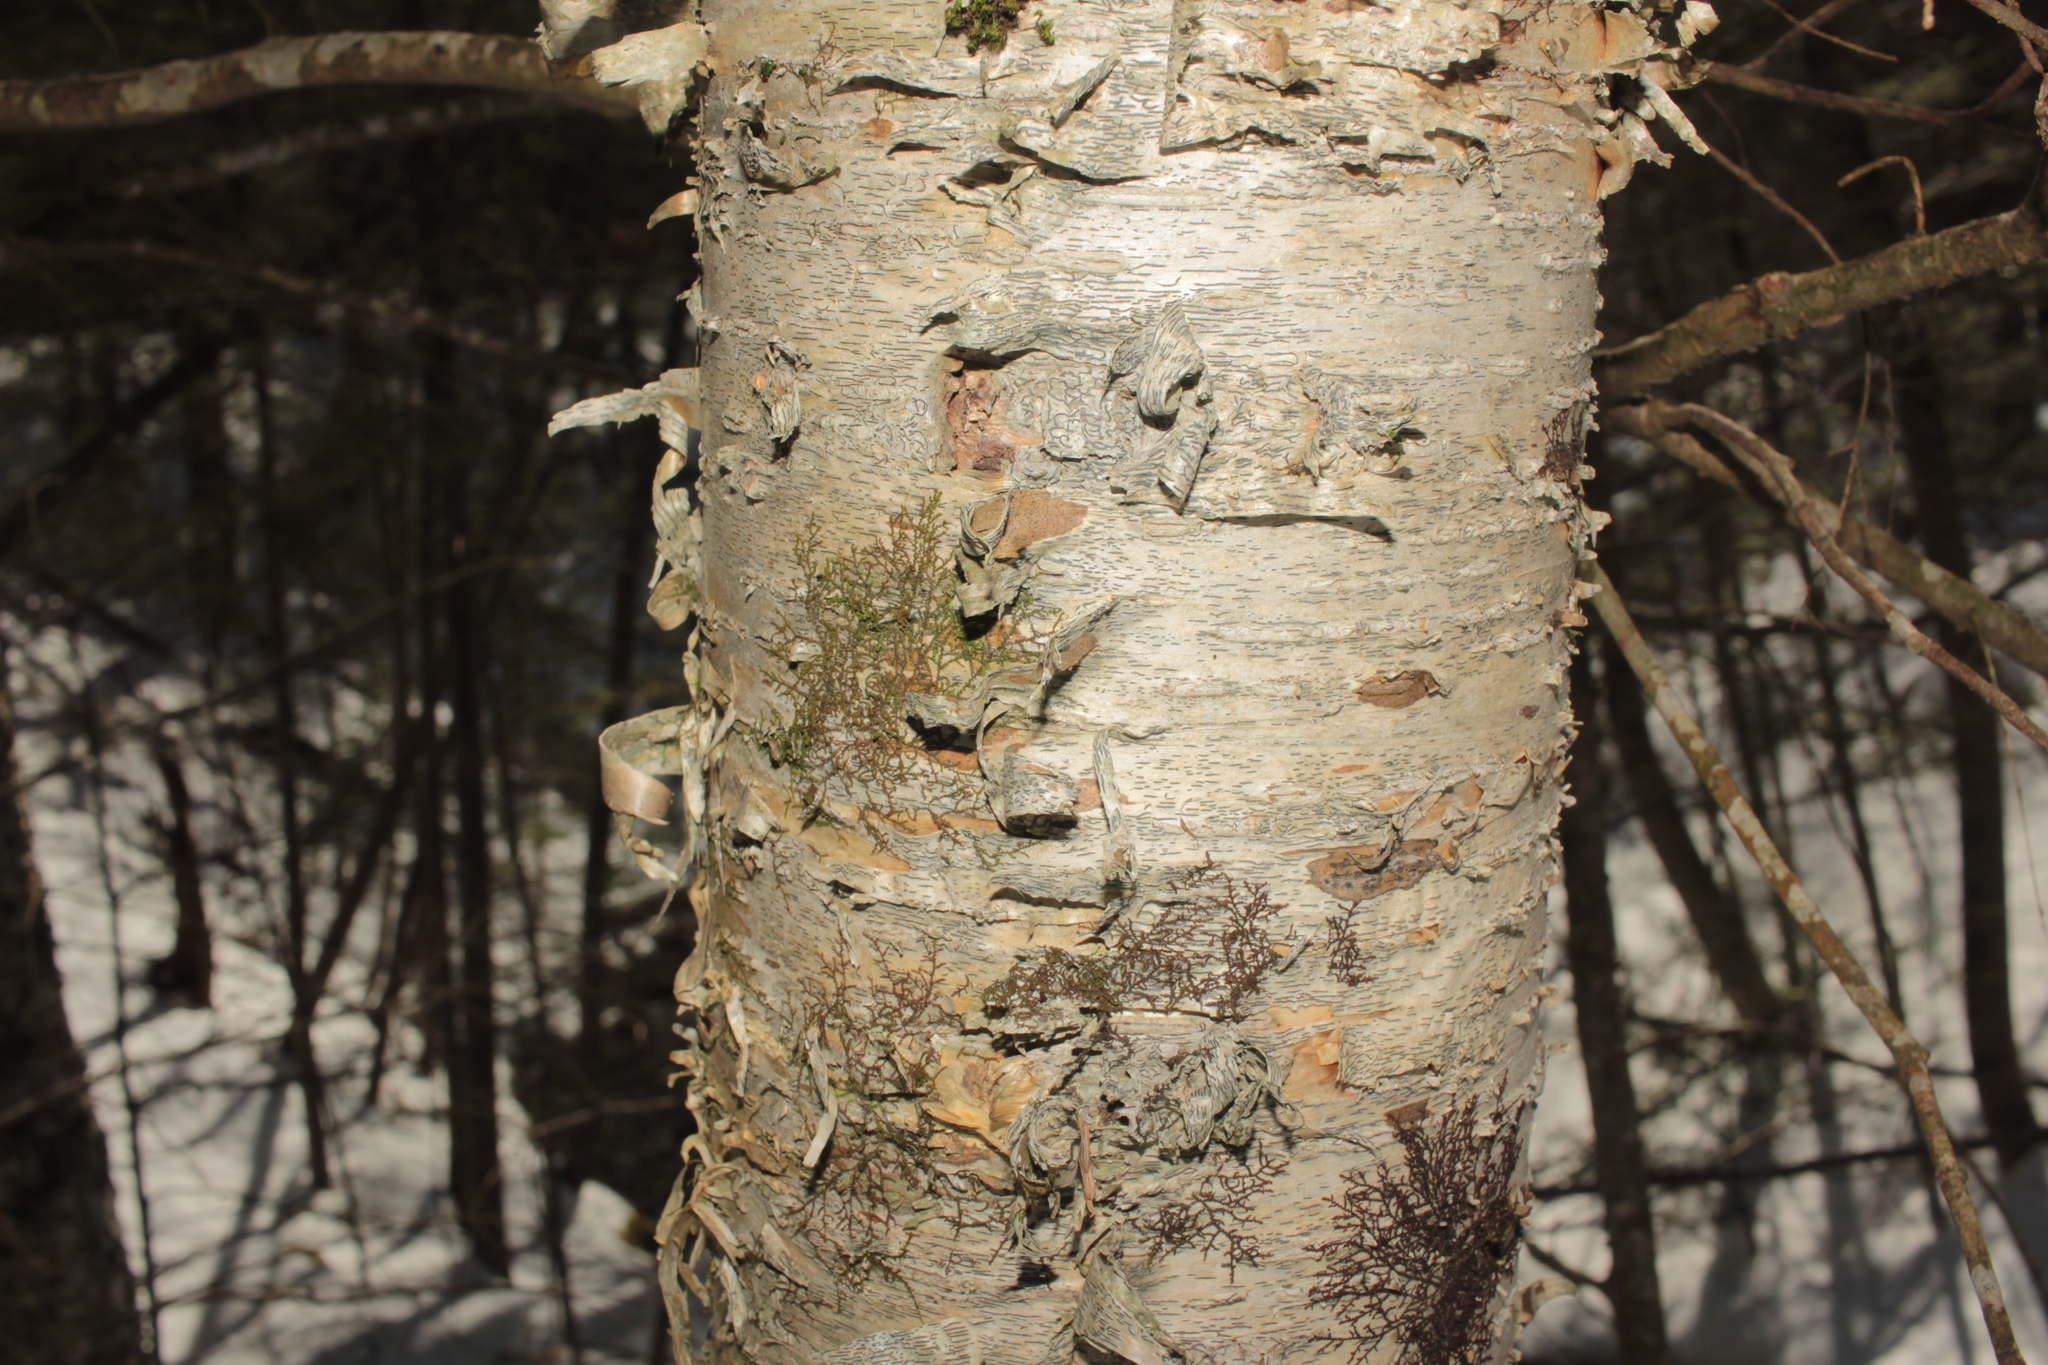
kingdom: Plantae
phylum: Tracheophyta
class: Magnoliopsida
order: Fagales
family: Betulaceae
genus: Betula
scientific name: Betula alleghaniensis
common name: Yellow birch
